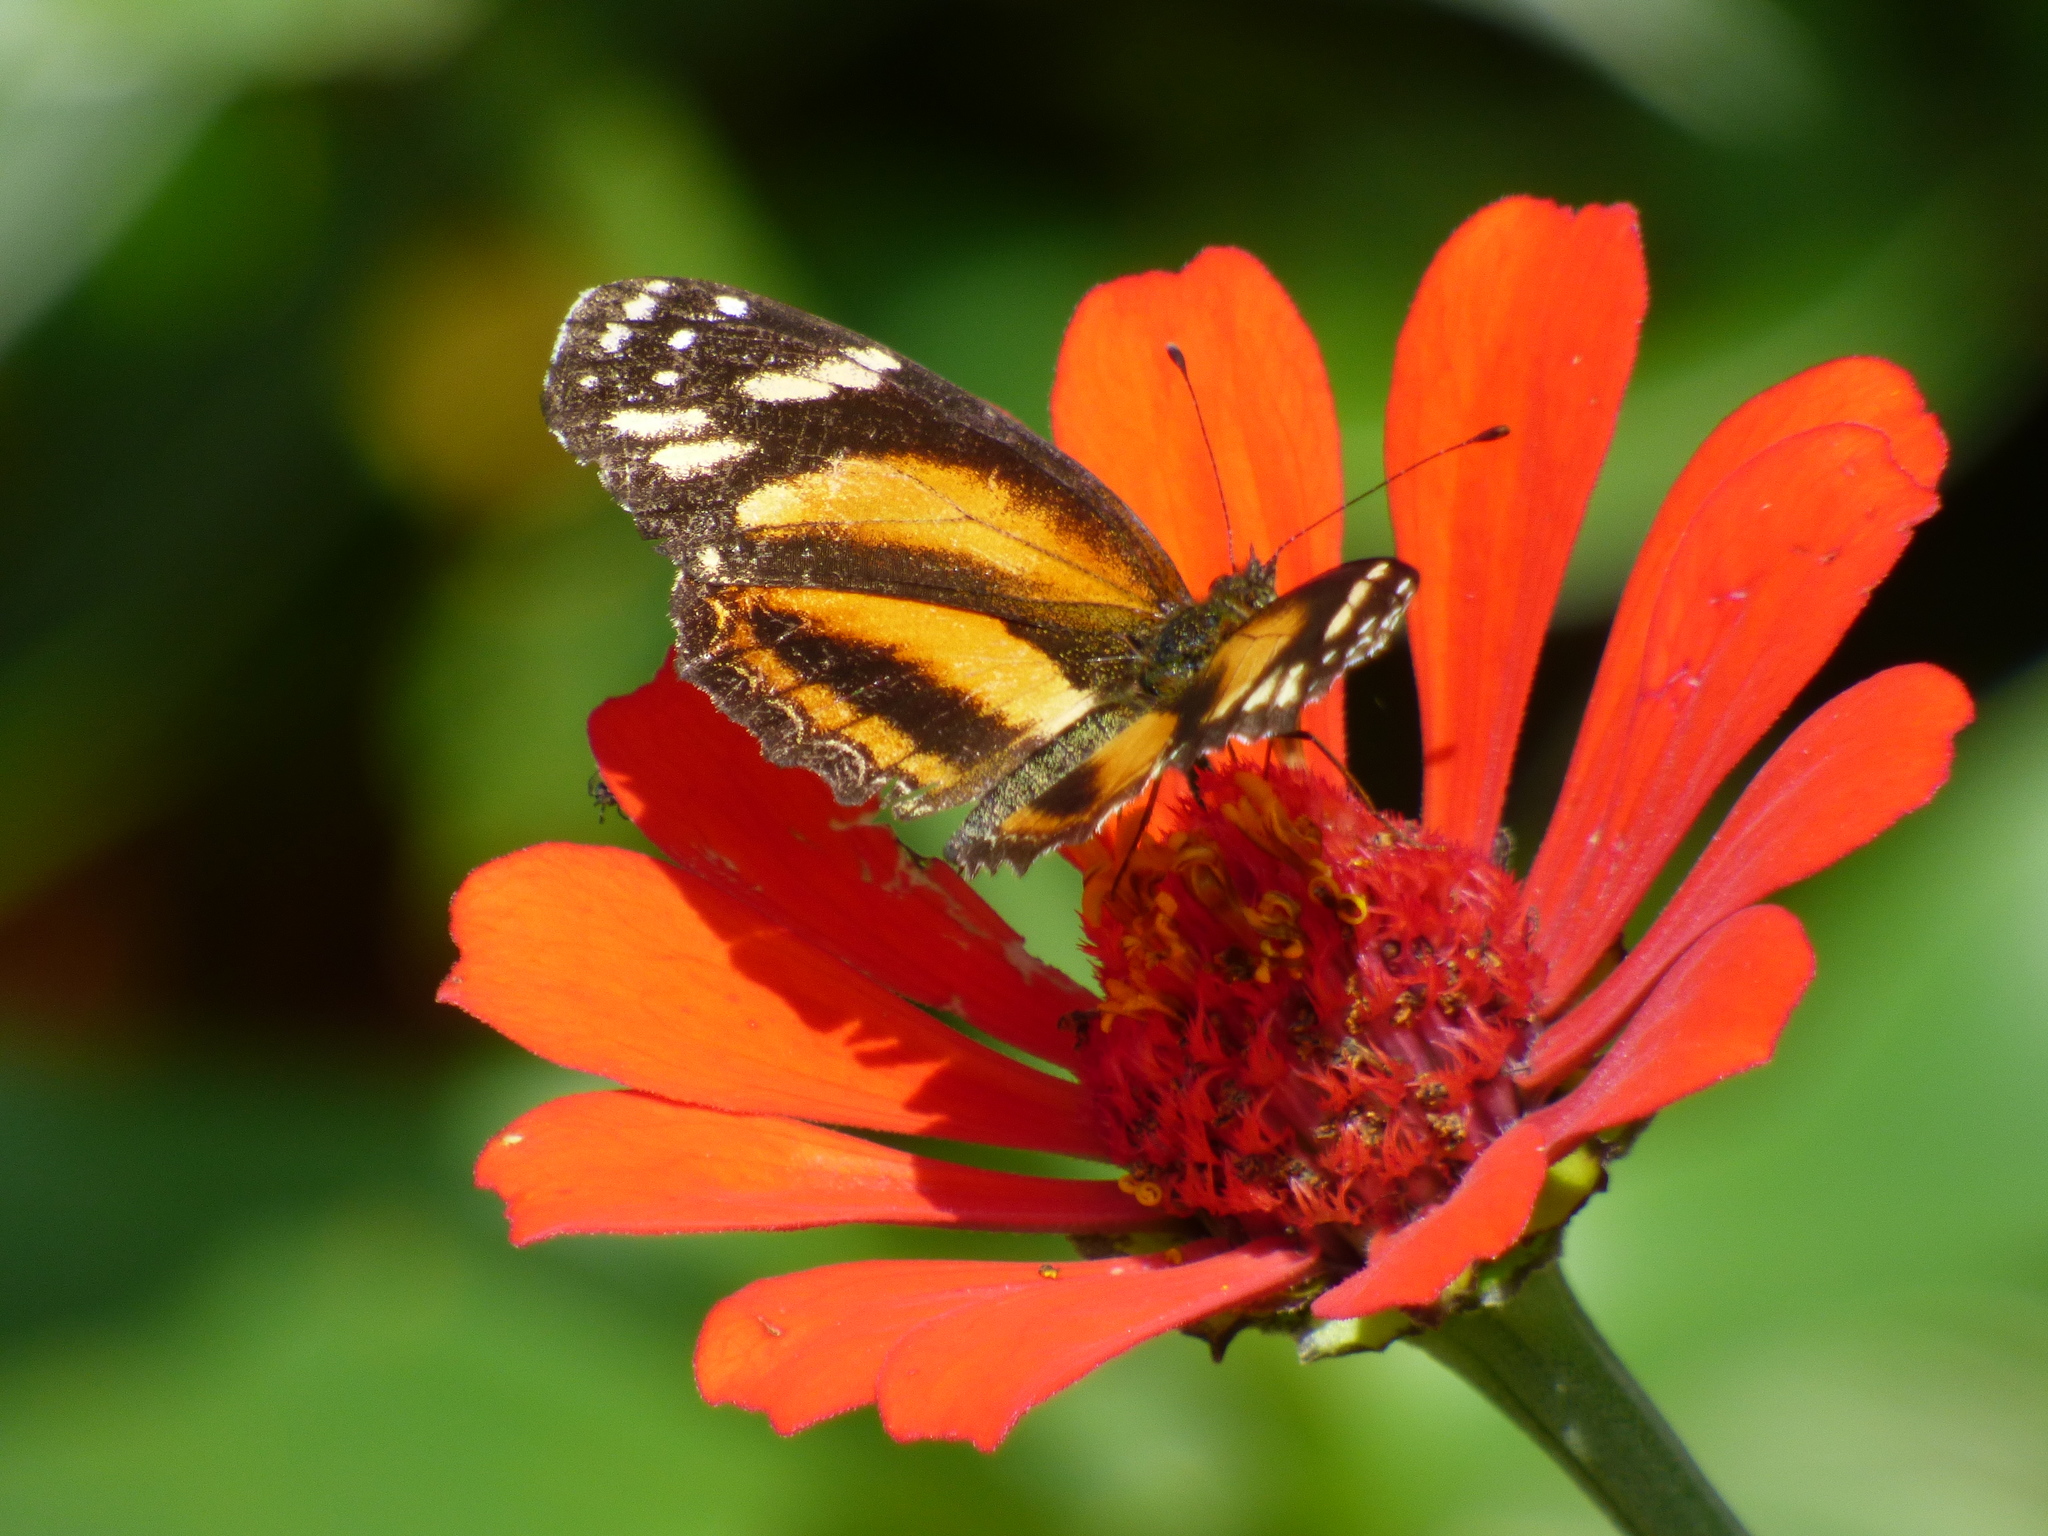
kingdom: Animalia
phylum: Arthropoda
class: Insecta
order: Lepidoptera
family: Nymphalidae
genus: Castilia
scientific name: Castilia eranites
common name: Smudged crescent
